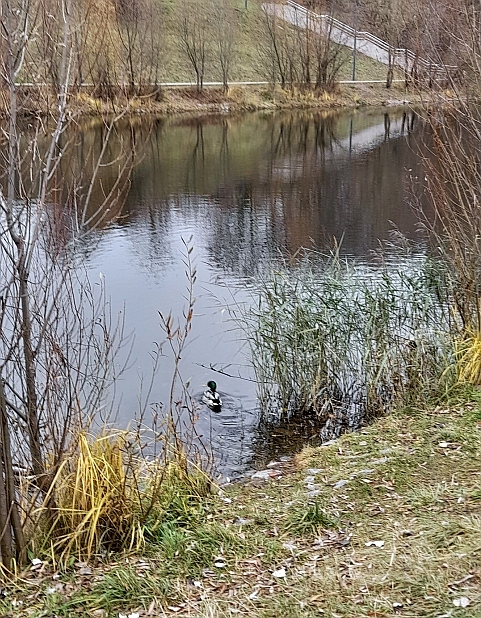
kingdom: Animalia
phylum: Chordata
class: Aves
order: Anseriformes
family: Anatidae
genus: Anas
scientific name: Anas platyrhynchos
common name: Mallard
